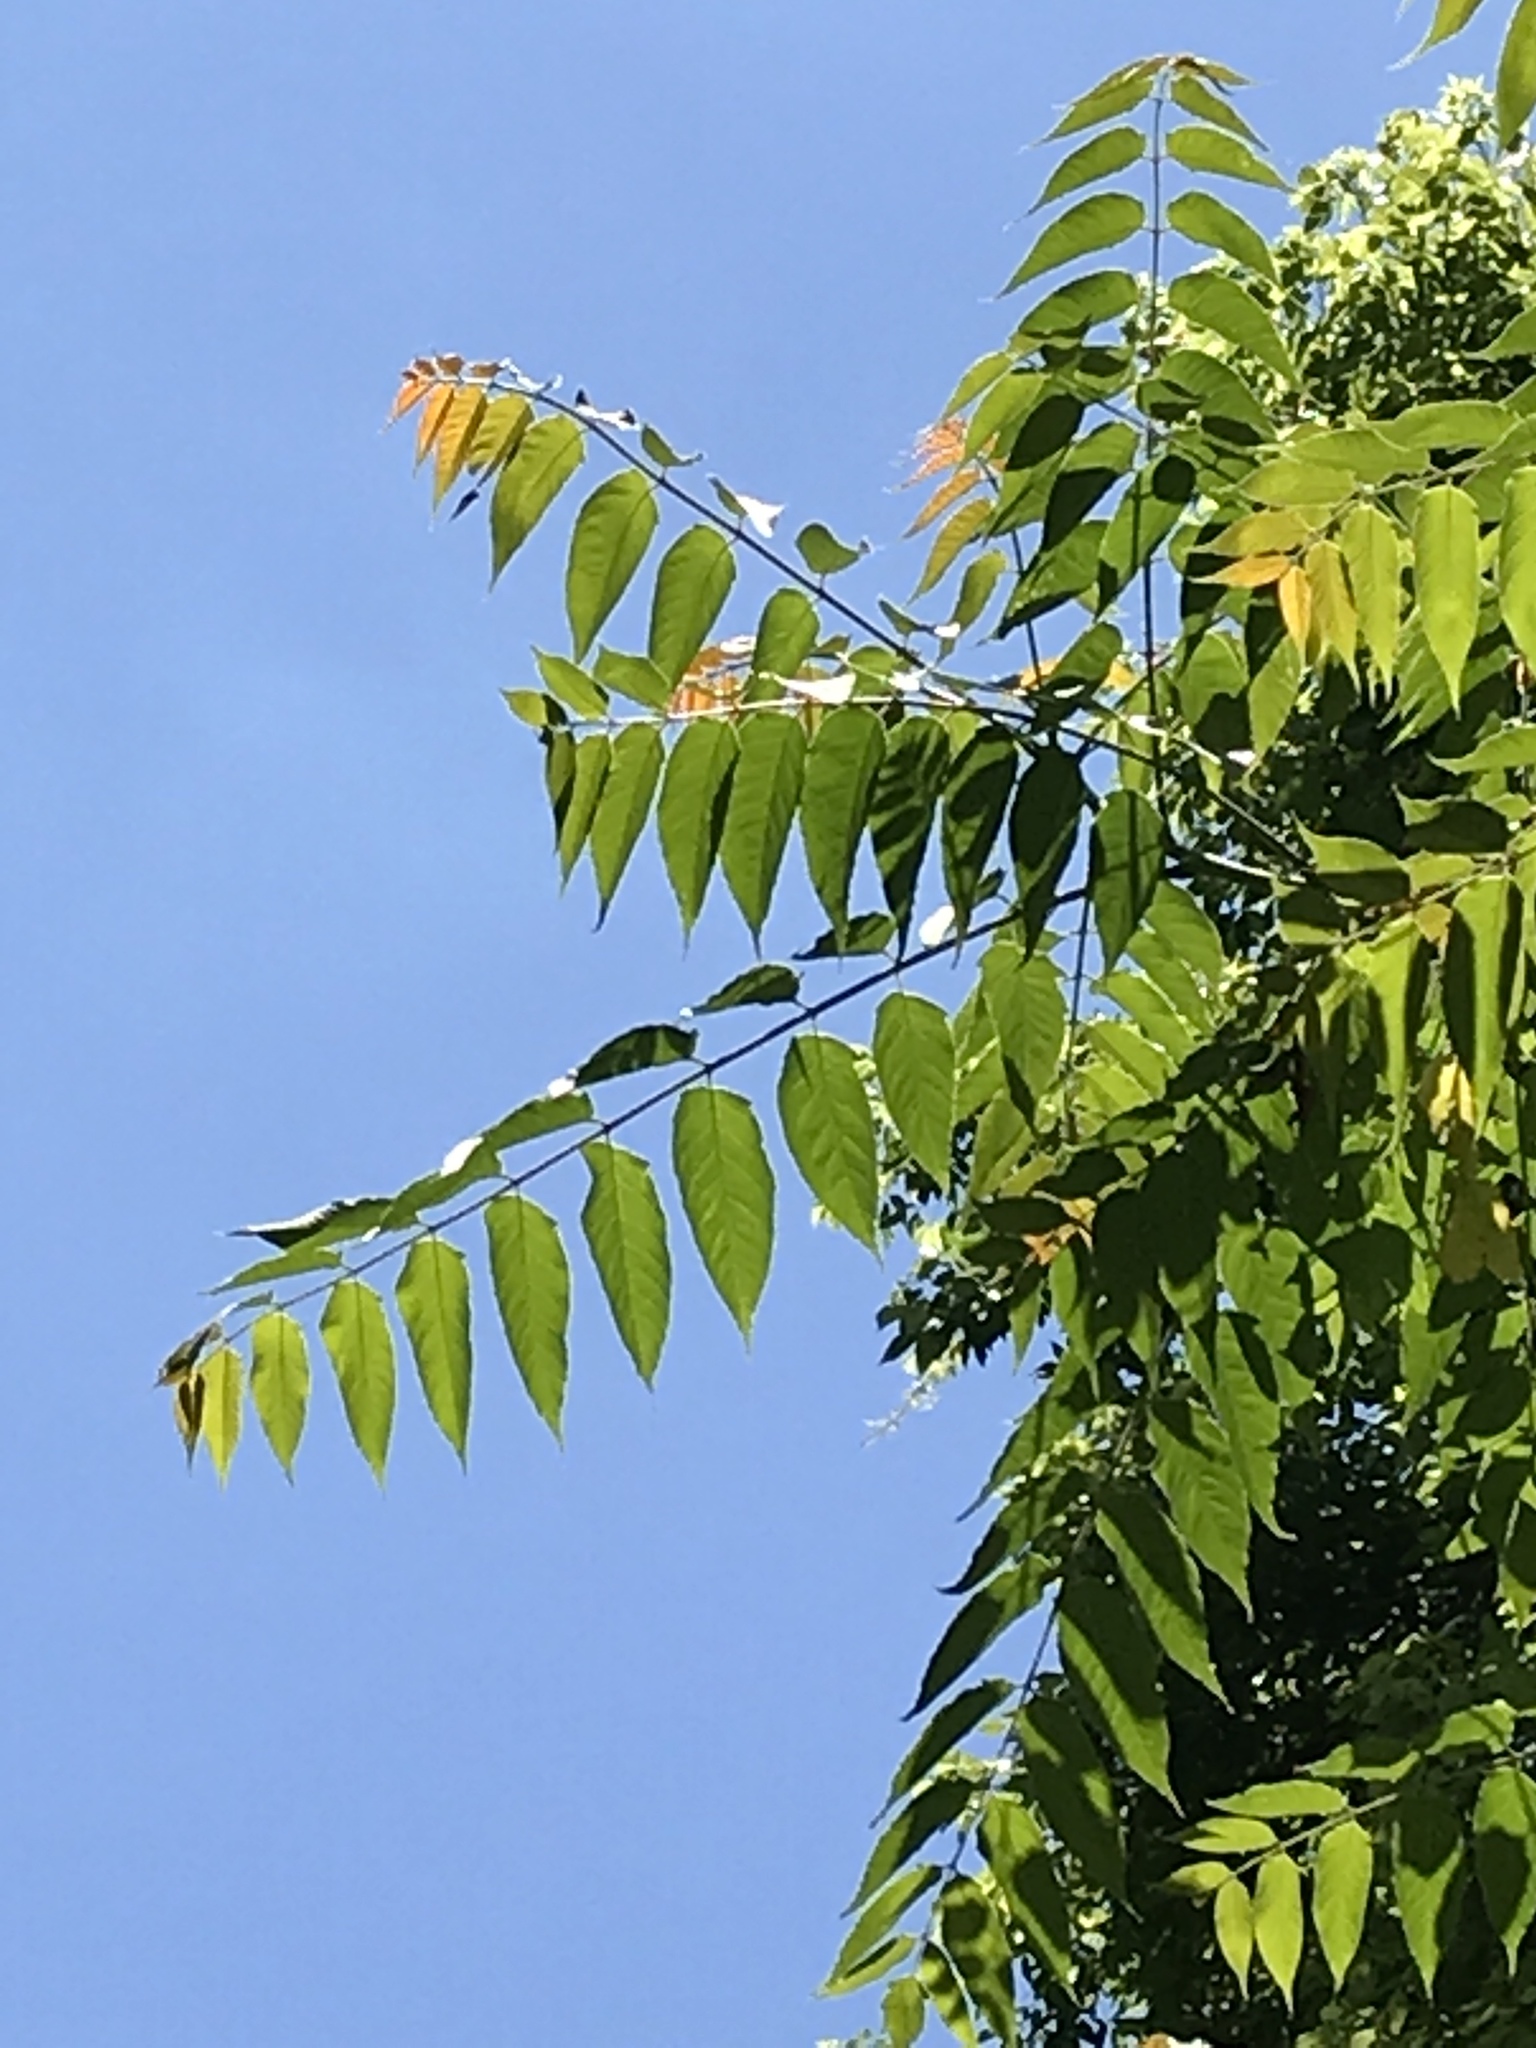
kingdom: Plantae
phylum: Tracheophyta
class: Magnoliopsida
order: Sapindales
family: Simaroubaceae
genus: Ailanthus
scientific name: Ailanthus altissima
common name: Tree-of-heaven
